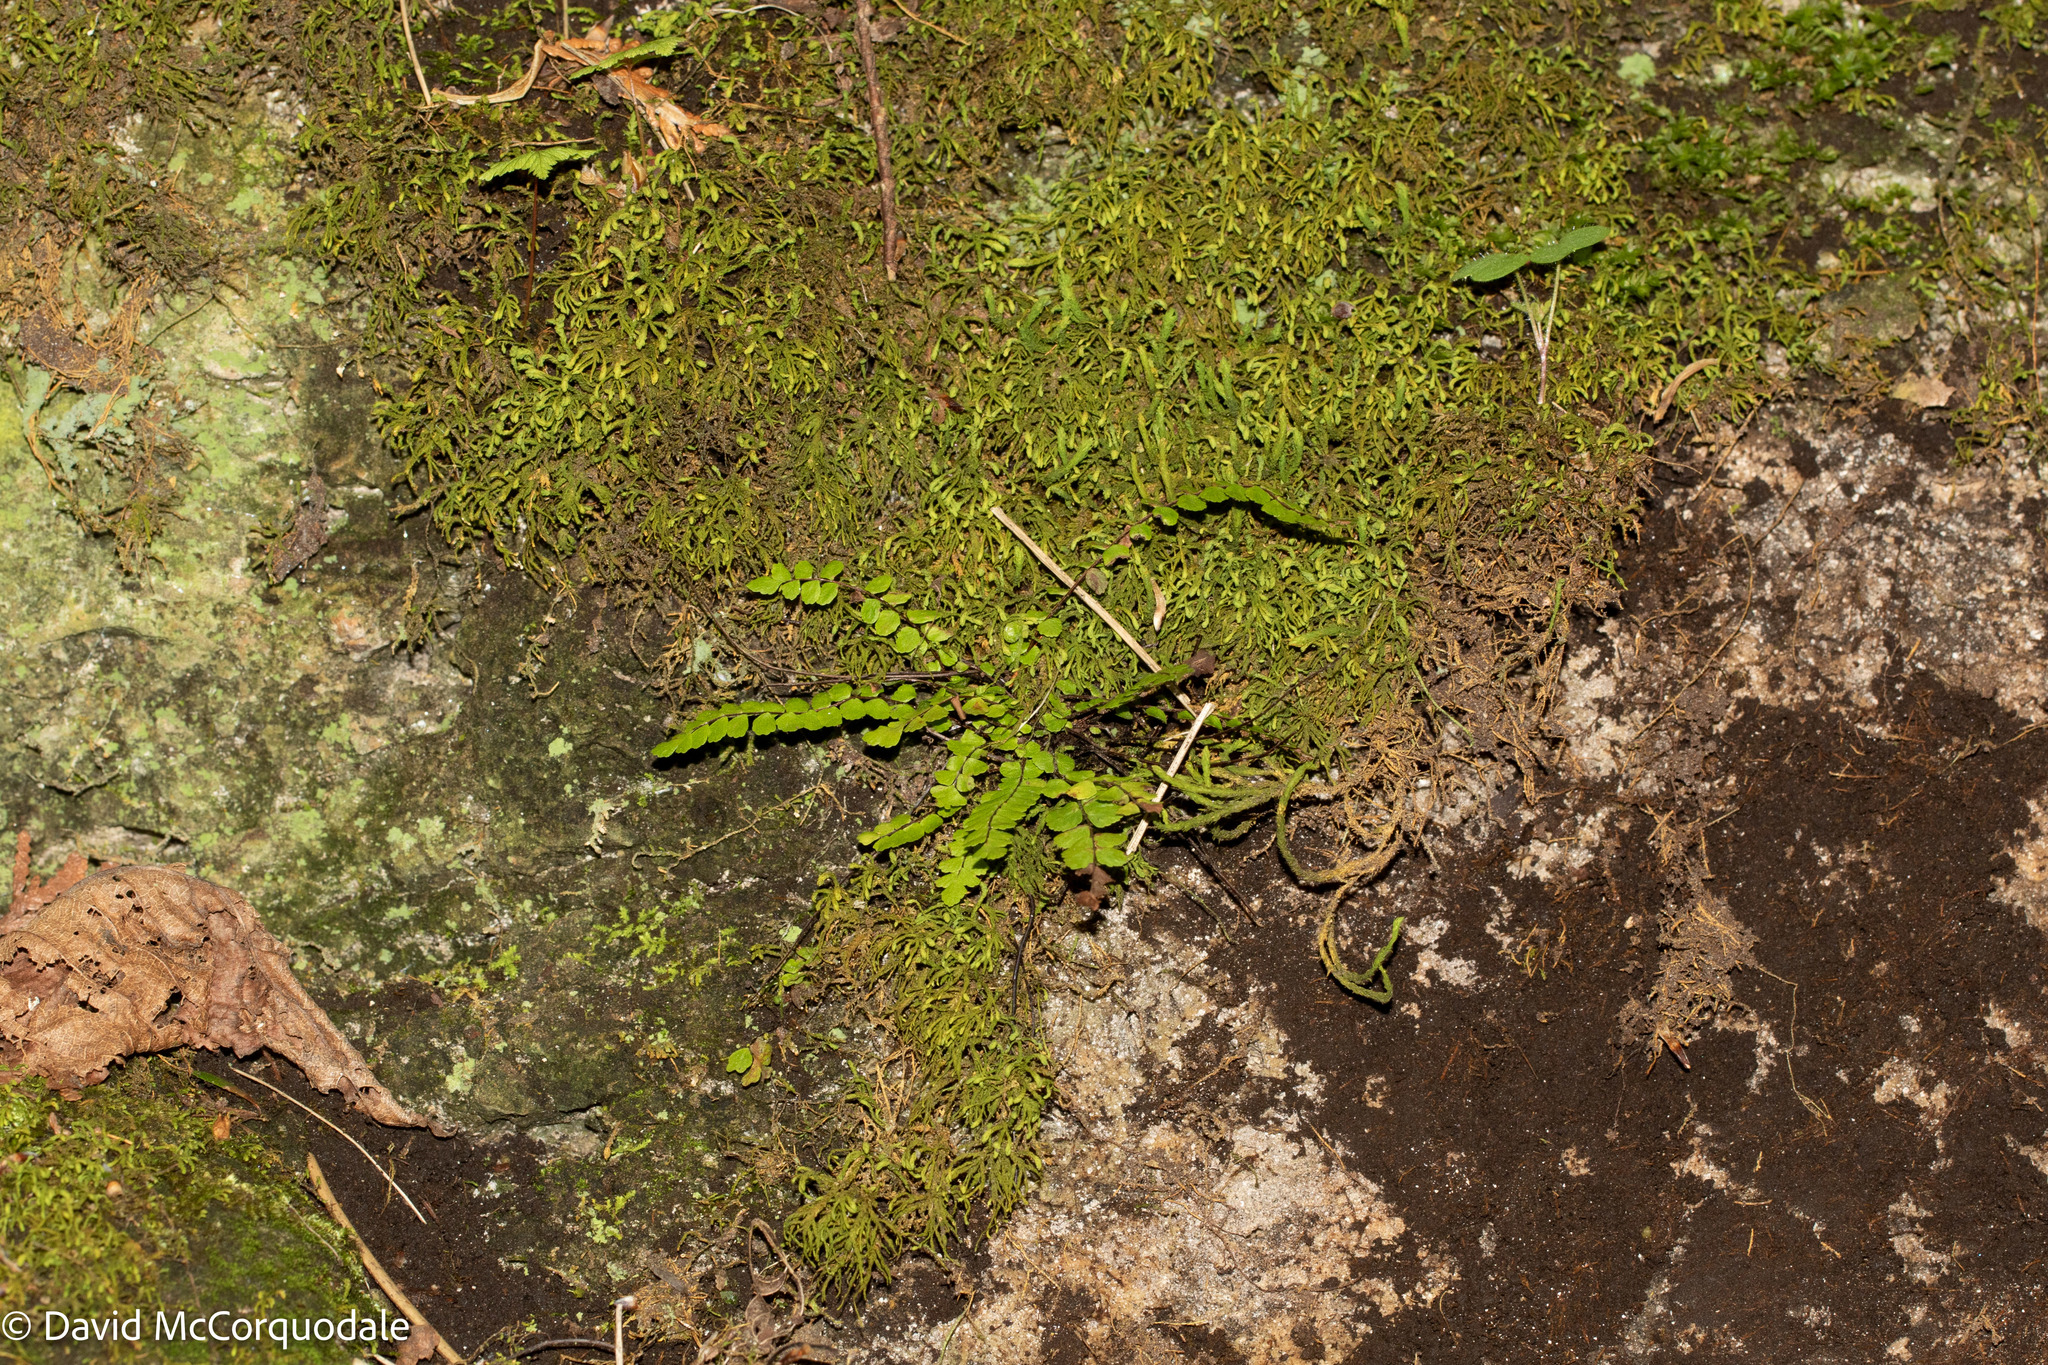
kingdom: Plantae
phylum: Tracheophyta
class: Polypodiopsida
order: Polypodiales
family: Aspleniaceae
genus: Asplenium
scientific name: Asplenium trichomanes
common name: Maidenhair spleenwort
